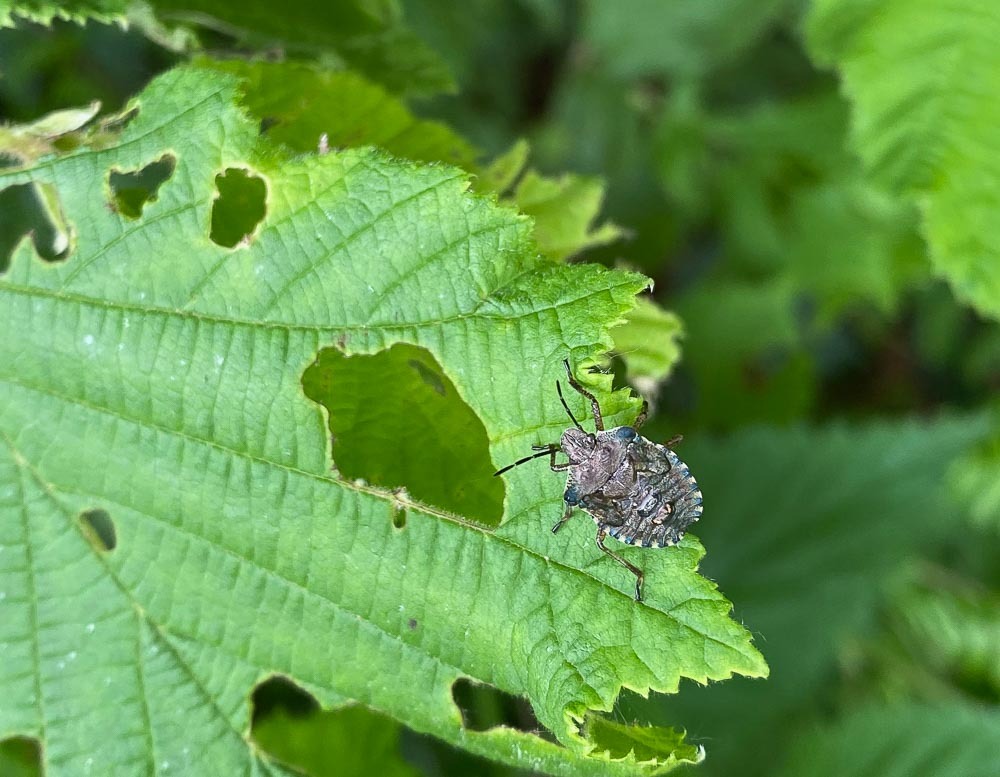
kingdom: Animalia
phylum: Arthropoda
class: Insecta
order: Hemiptera
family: Pentatomidae
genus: Pentatoma
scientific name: Pentatoma rufipes
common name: Forest bug
